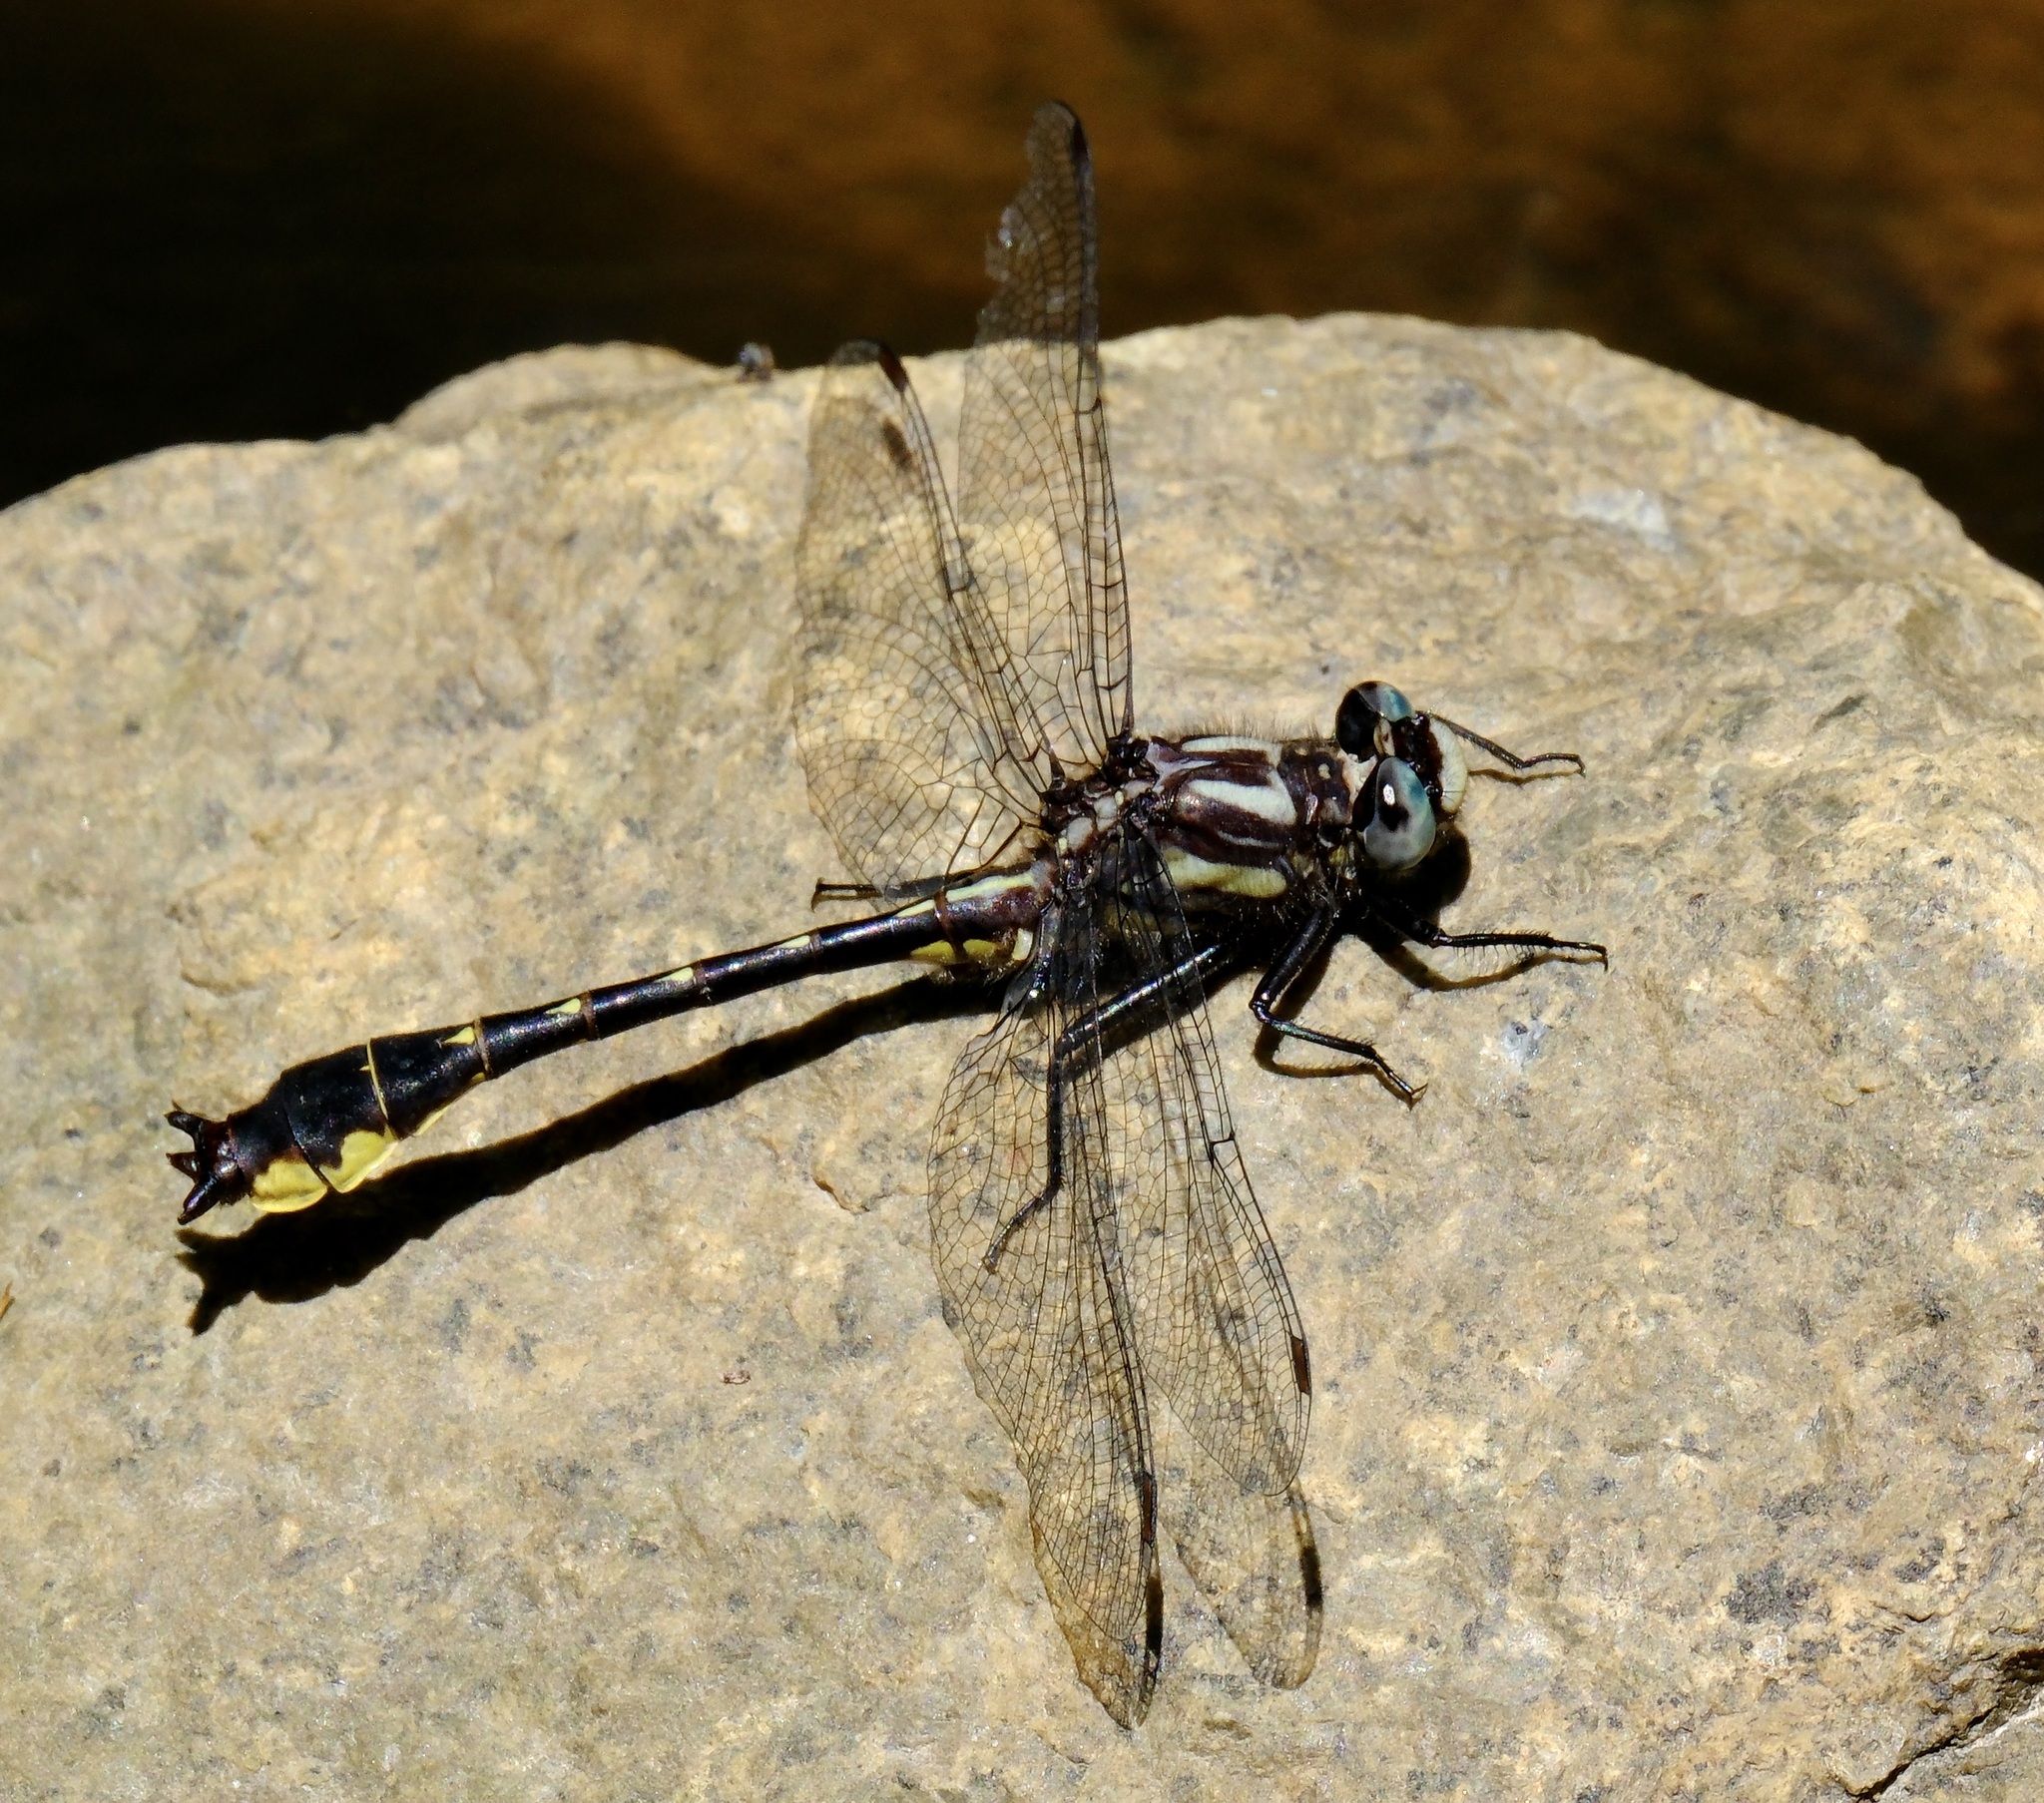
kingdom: Animalia
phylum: Arthropoda
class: Insecta
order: Odonata
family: Gomphidae
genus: Hylogomphus
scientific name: Hylogomphus apomyius
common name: Banner clubtail
